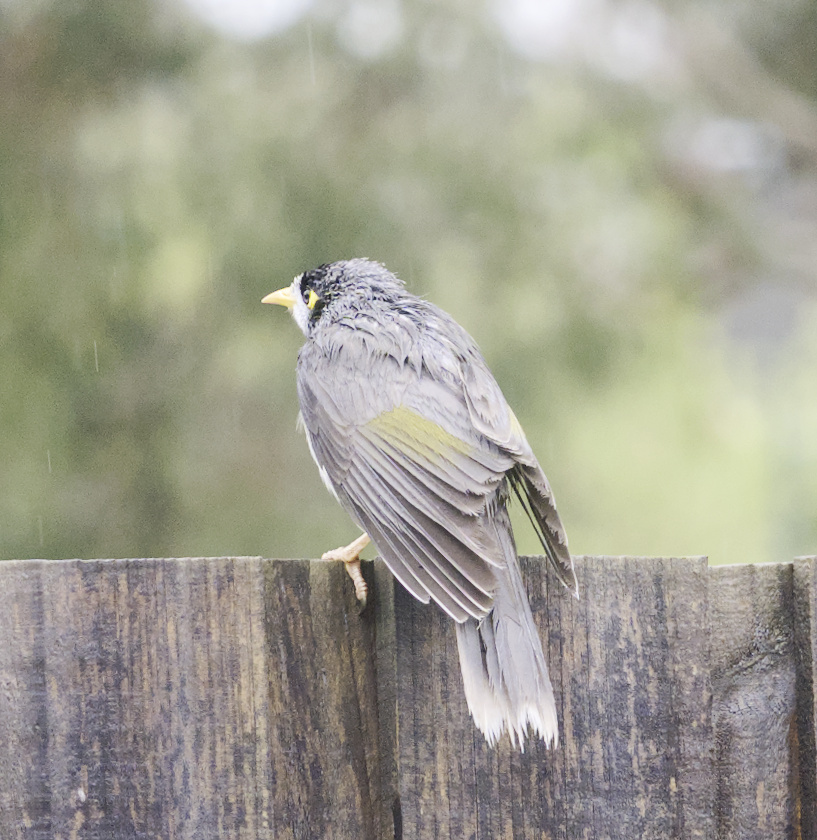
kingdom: Animalia
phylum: Chordata
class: Aves
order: Passeriformes
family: Meliphagidae
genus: Manorina
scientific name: Manorina melanocephala
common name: Noisy miner
